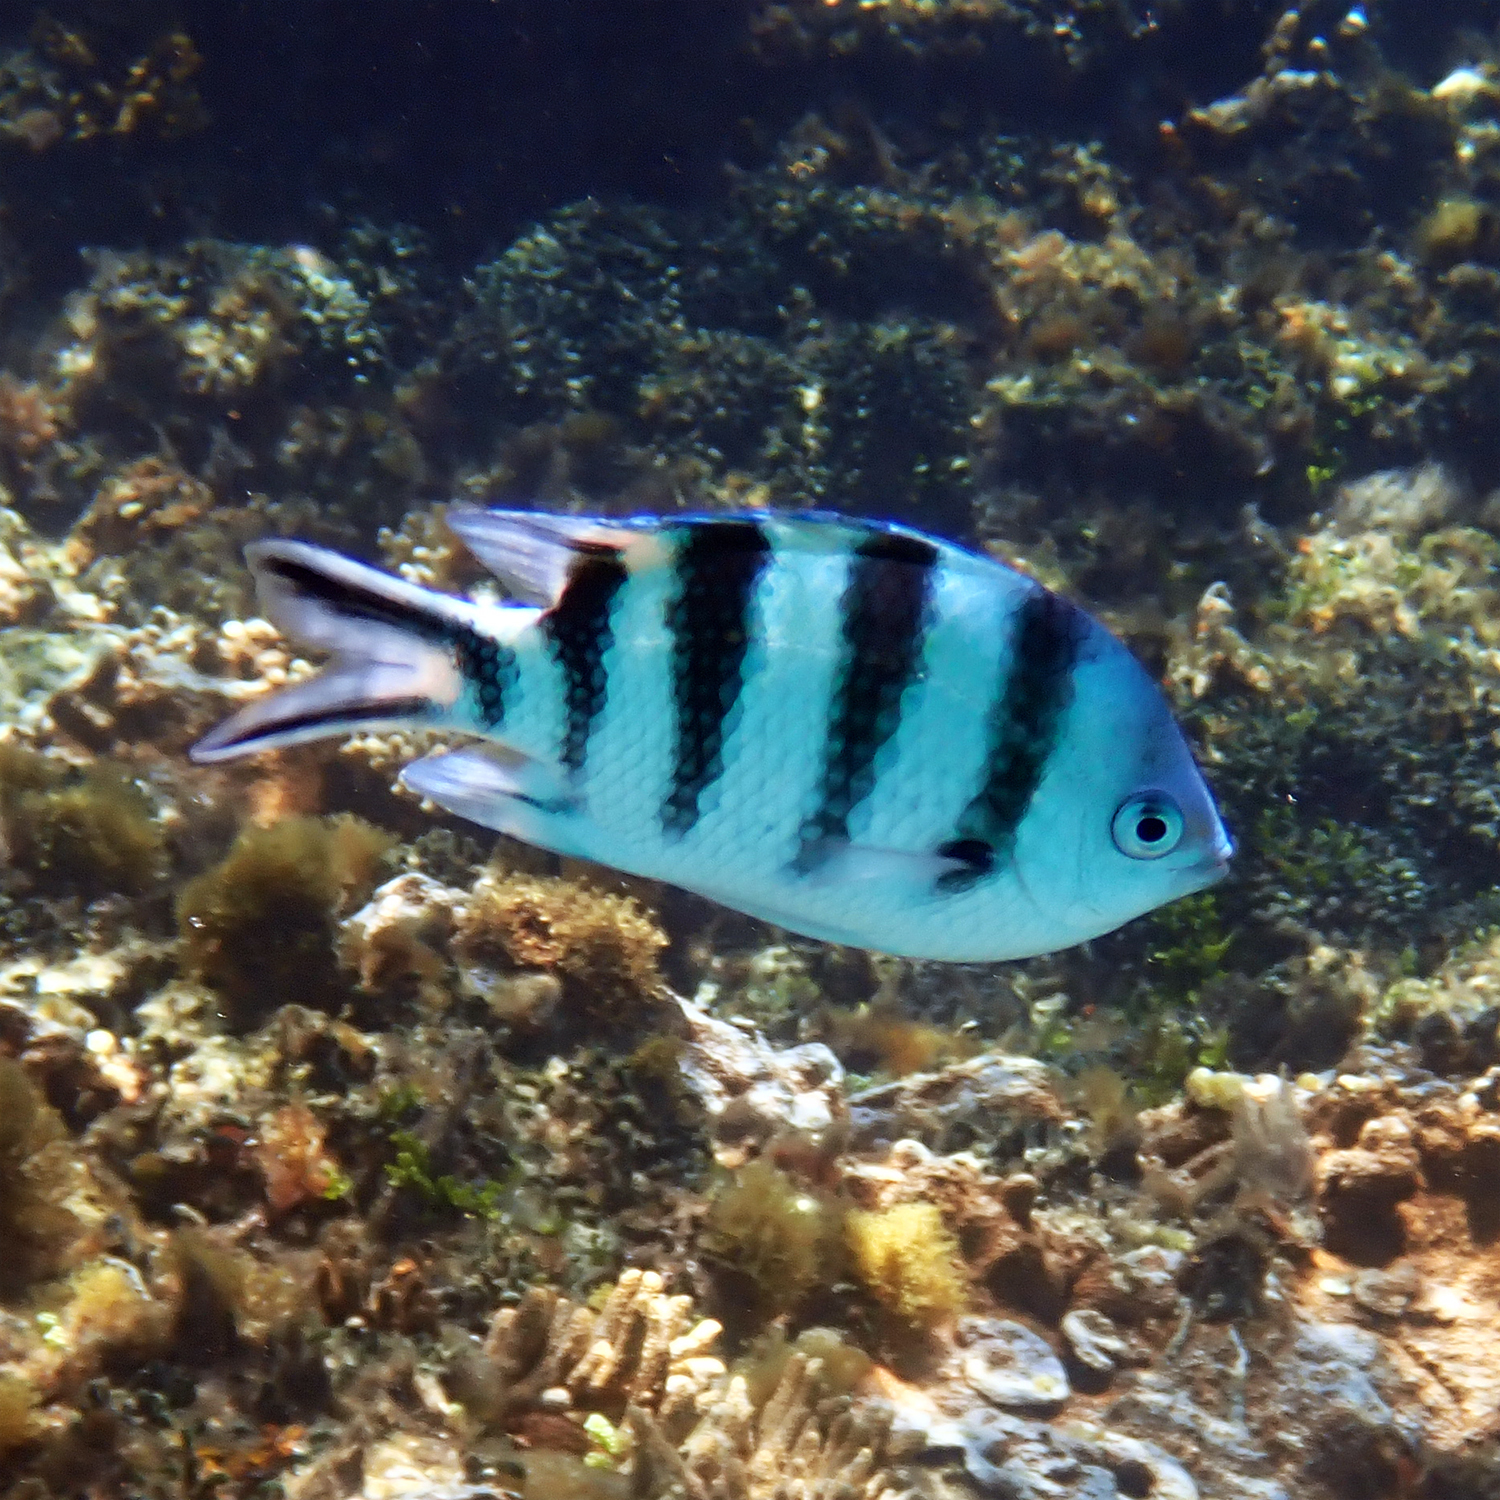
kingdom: Animalia
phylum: Chordata
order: Perciformes
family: Pomacentridae
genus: Abudefduf
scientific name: Abudefduf sexfasciatus
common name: Scissortail sergeant
